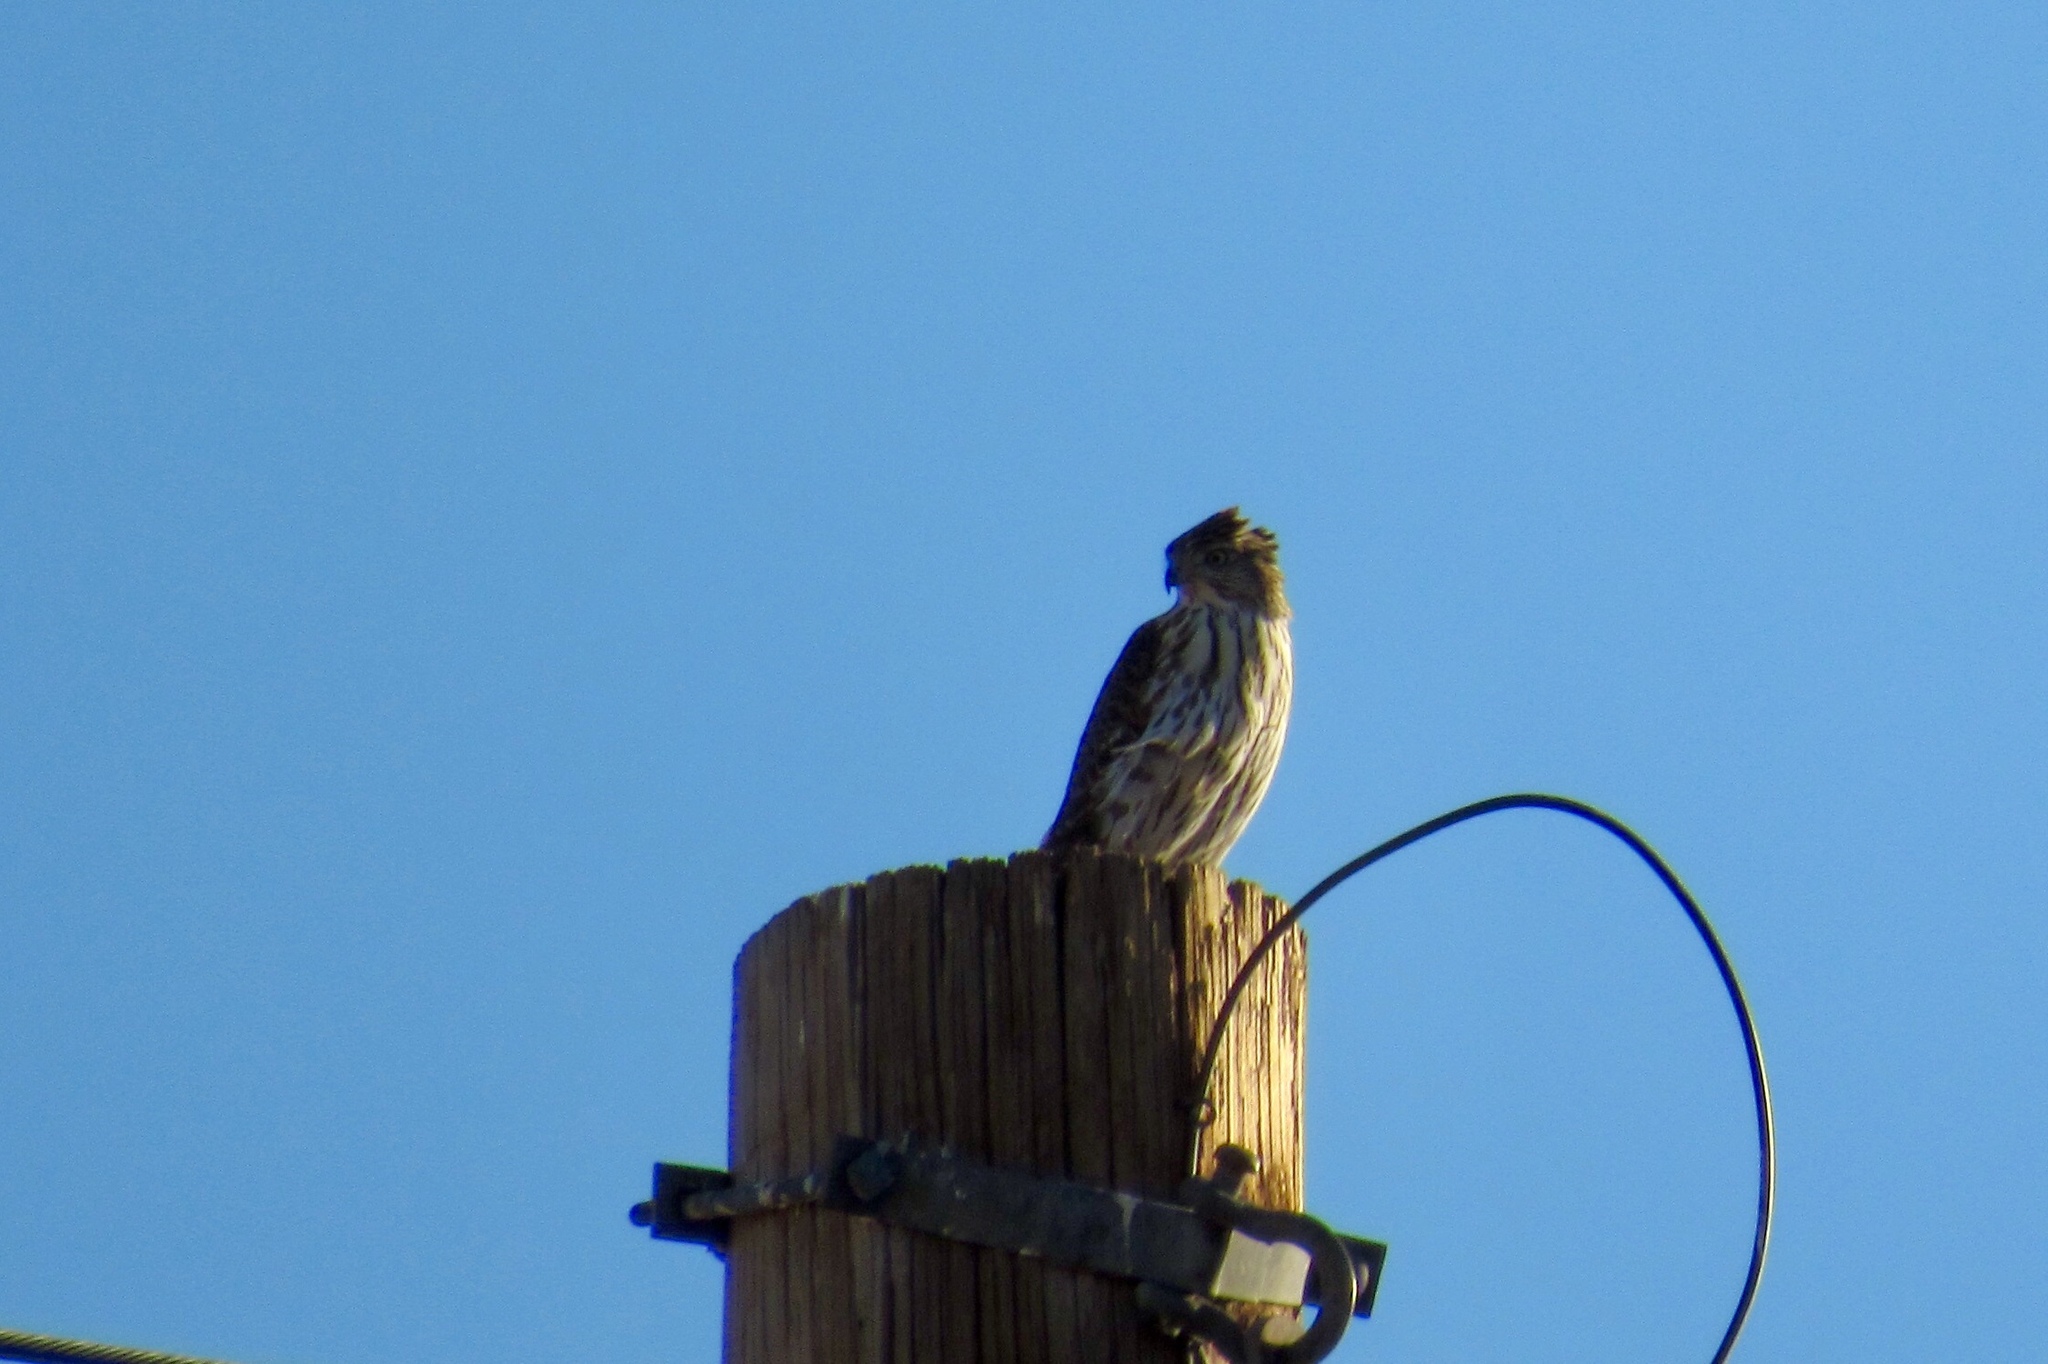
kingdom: Animalia
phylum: Chordata
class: Aves
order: Accipitriformes
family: Accipitridae
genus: Accipiter
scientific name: Accipiter cooperii
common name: Cooper's hawk
